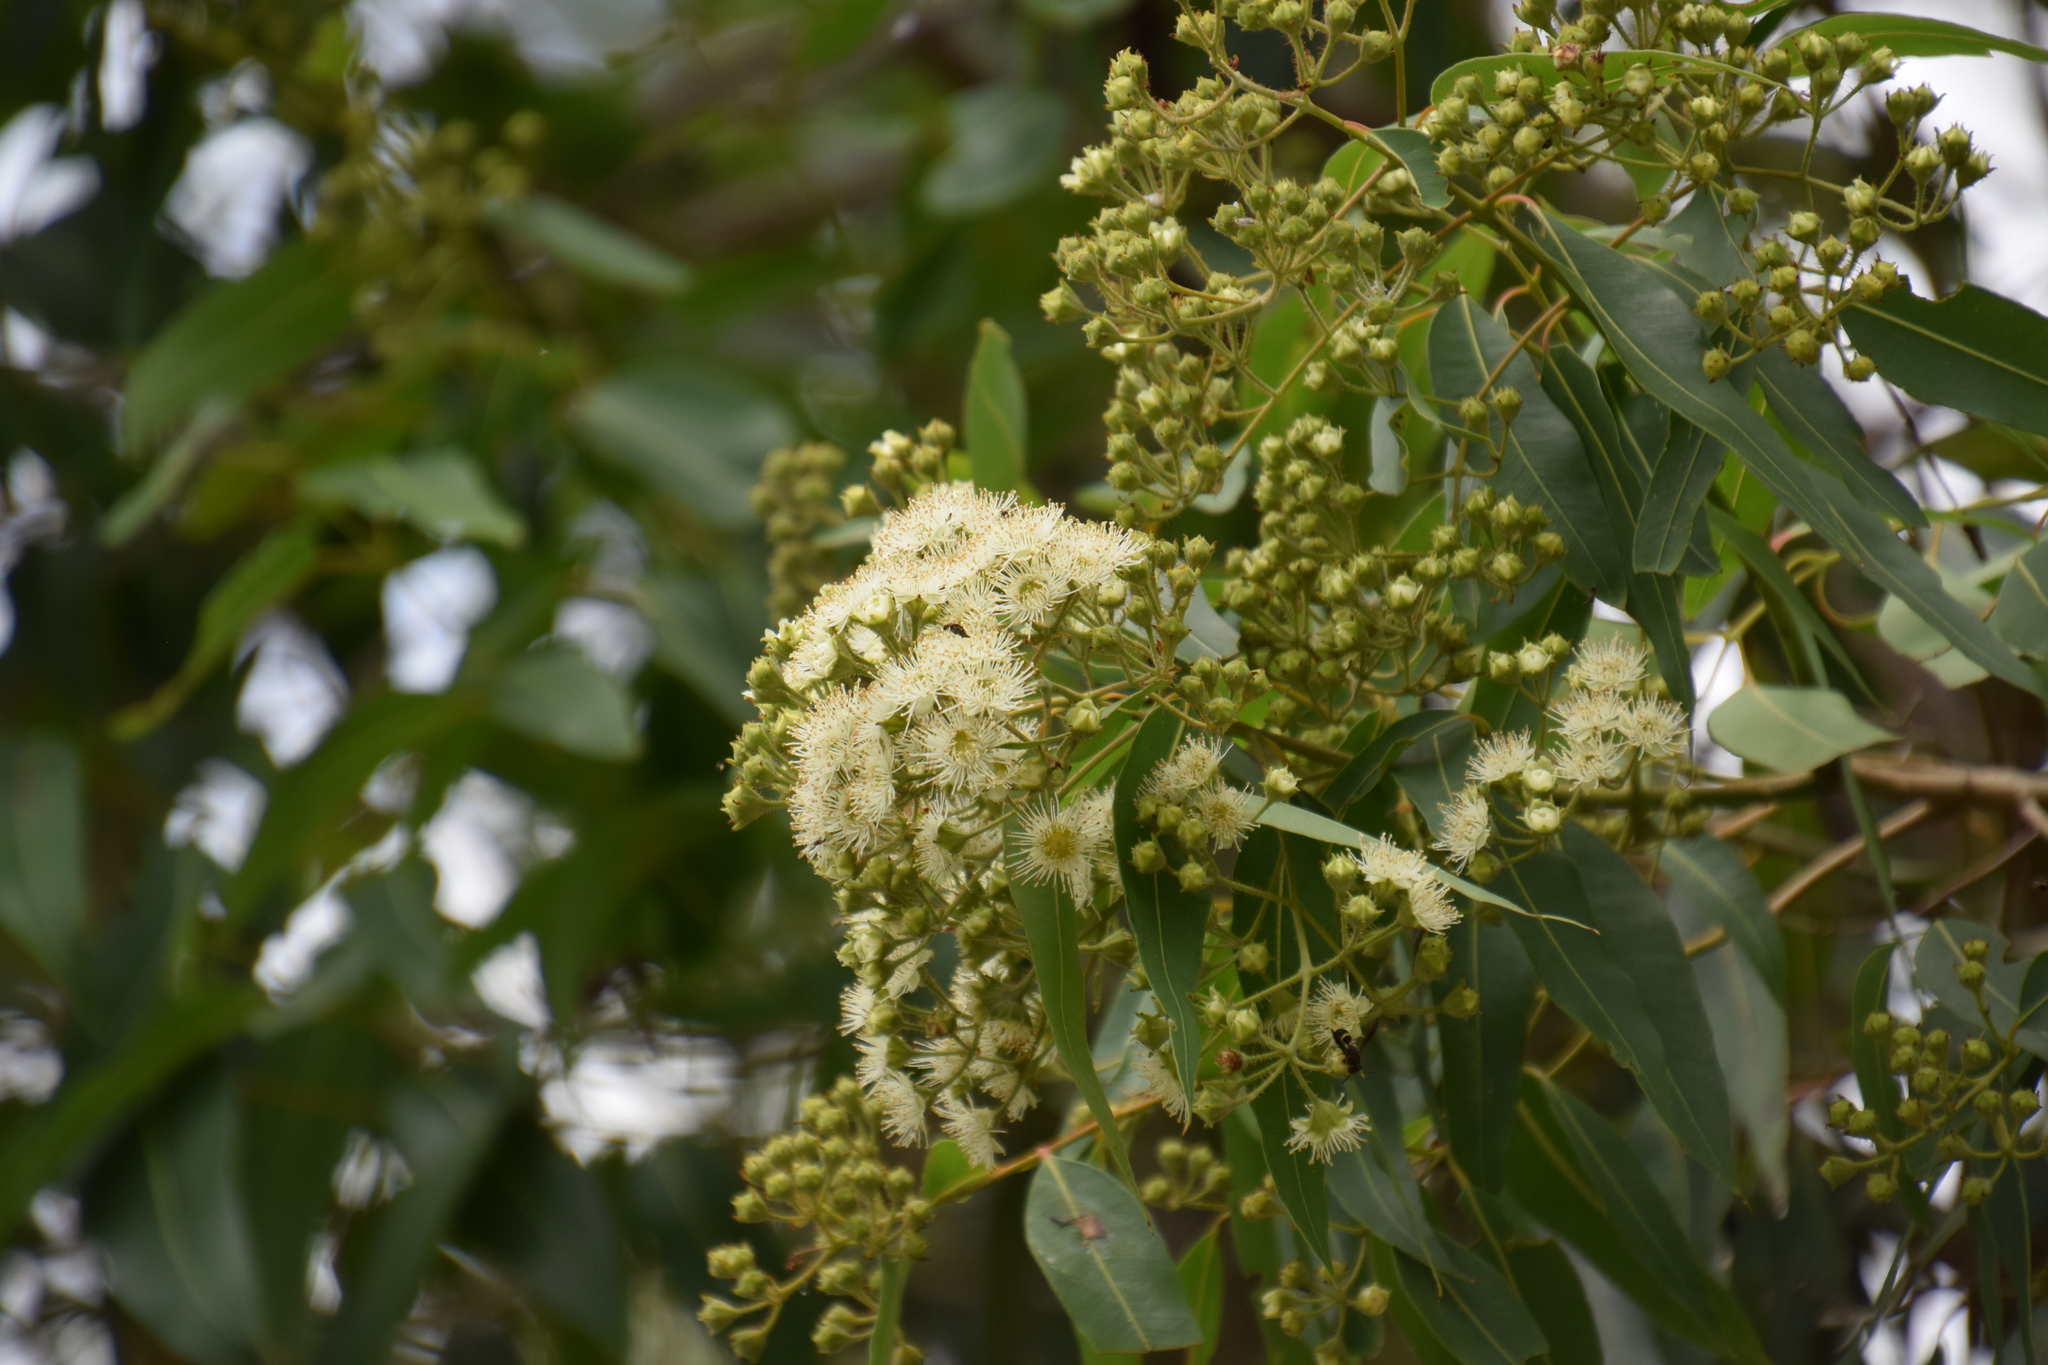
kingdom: Plantae
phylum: Tracheophyta
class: Magnoliopsida
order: Myrtales
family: Myrtaceae
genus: Angophora
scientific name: Angophora floribunda
